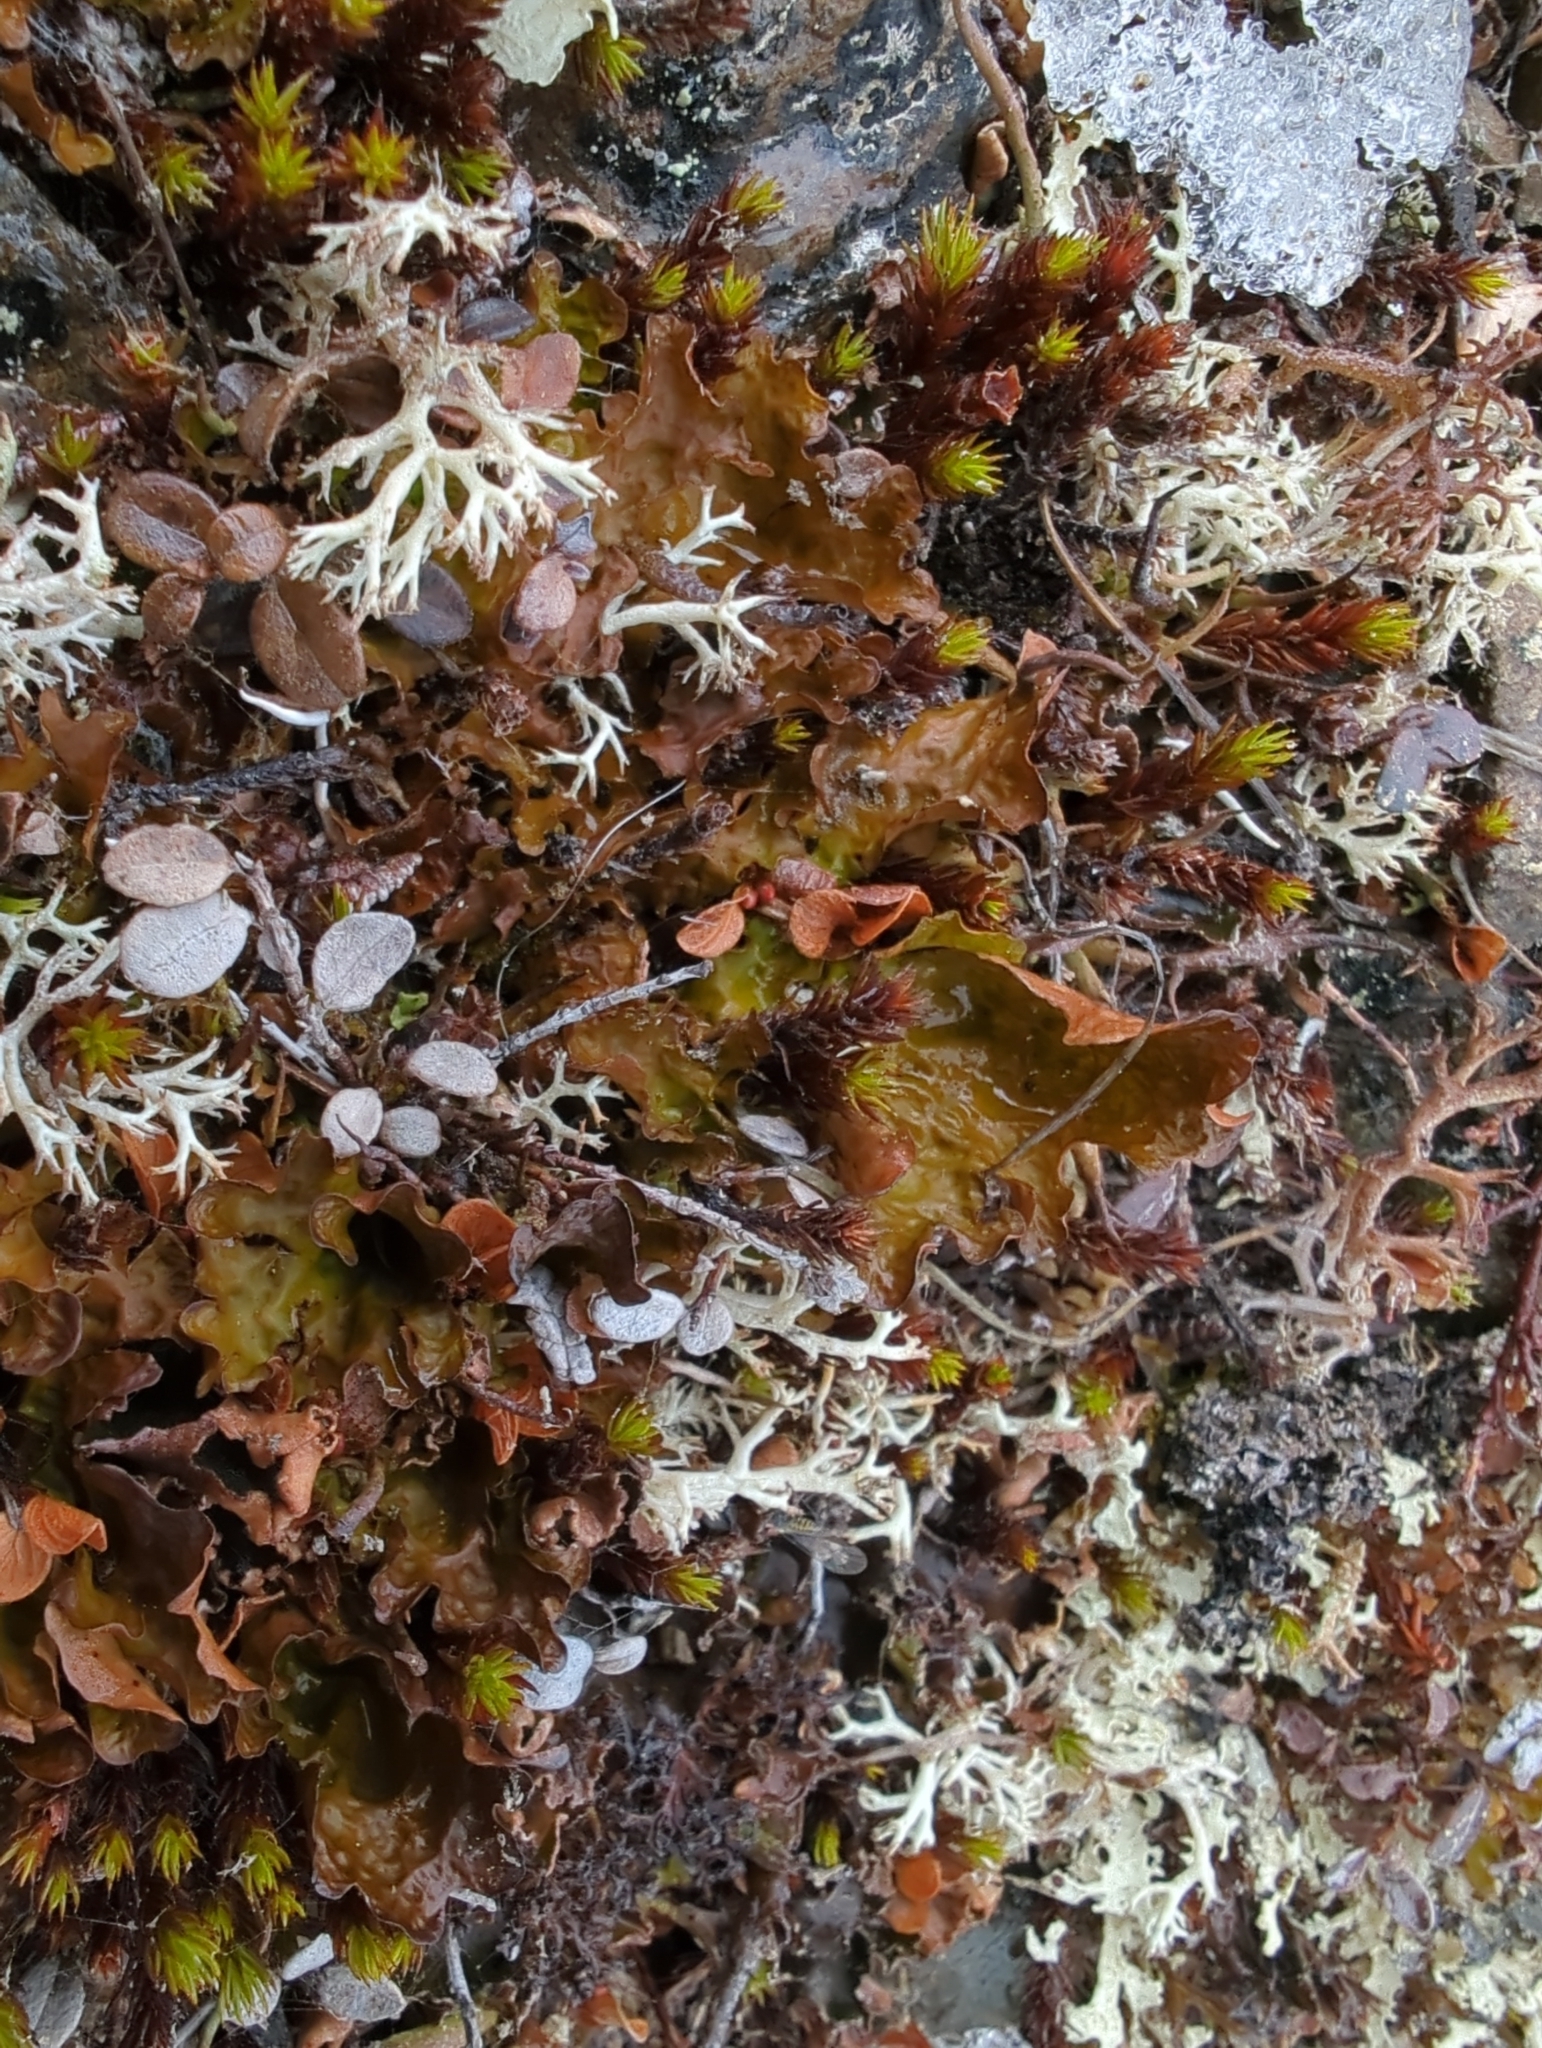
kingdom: Fungi
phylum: Ascomycota
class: Lecanoromycetes
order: Peltigerales
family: Lobariaceae
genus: Lobaria
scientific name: Lobaria linita
